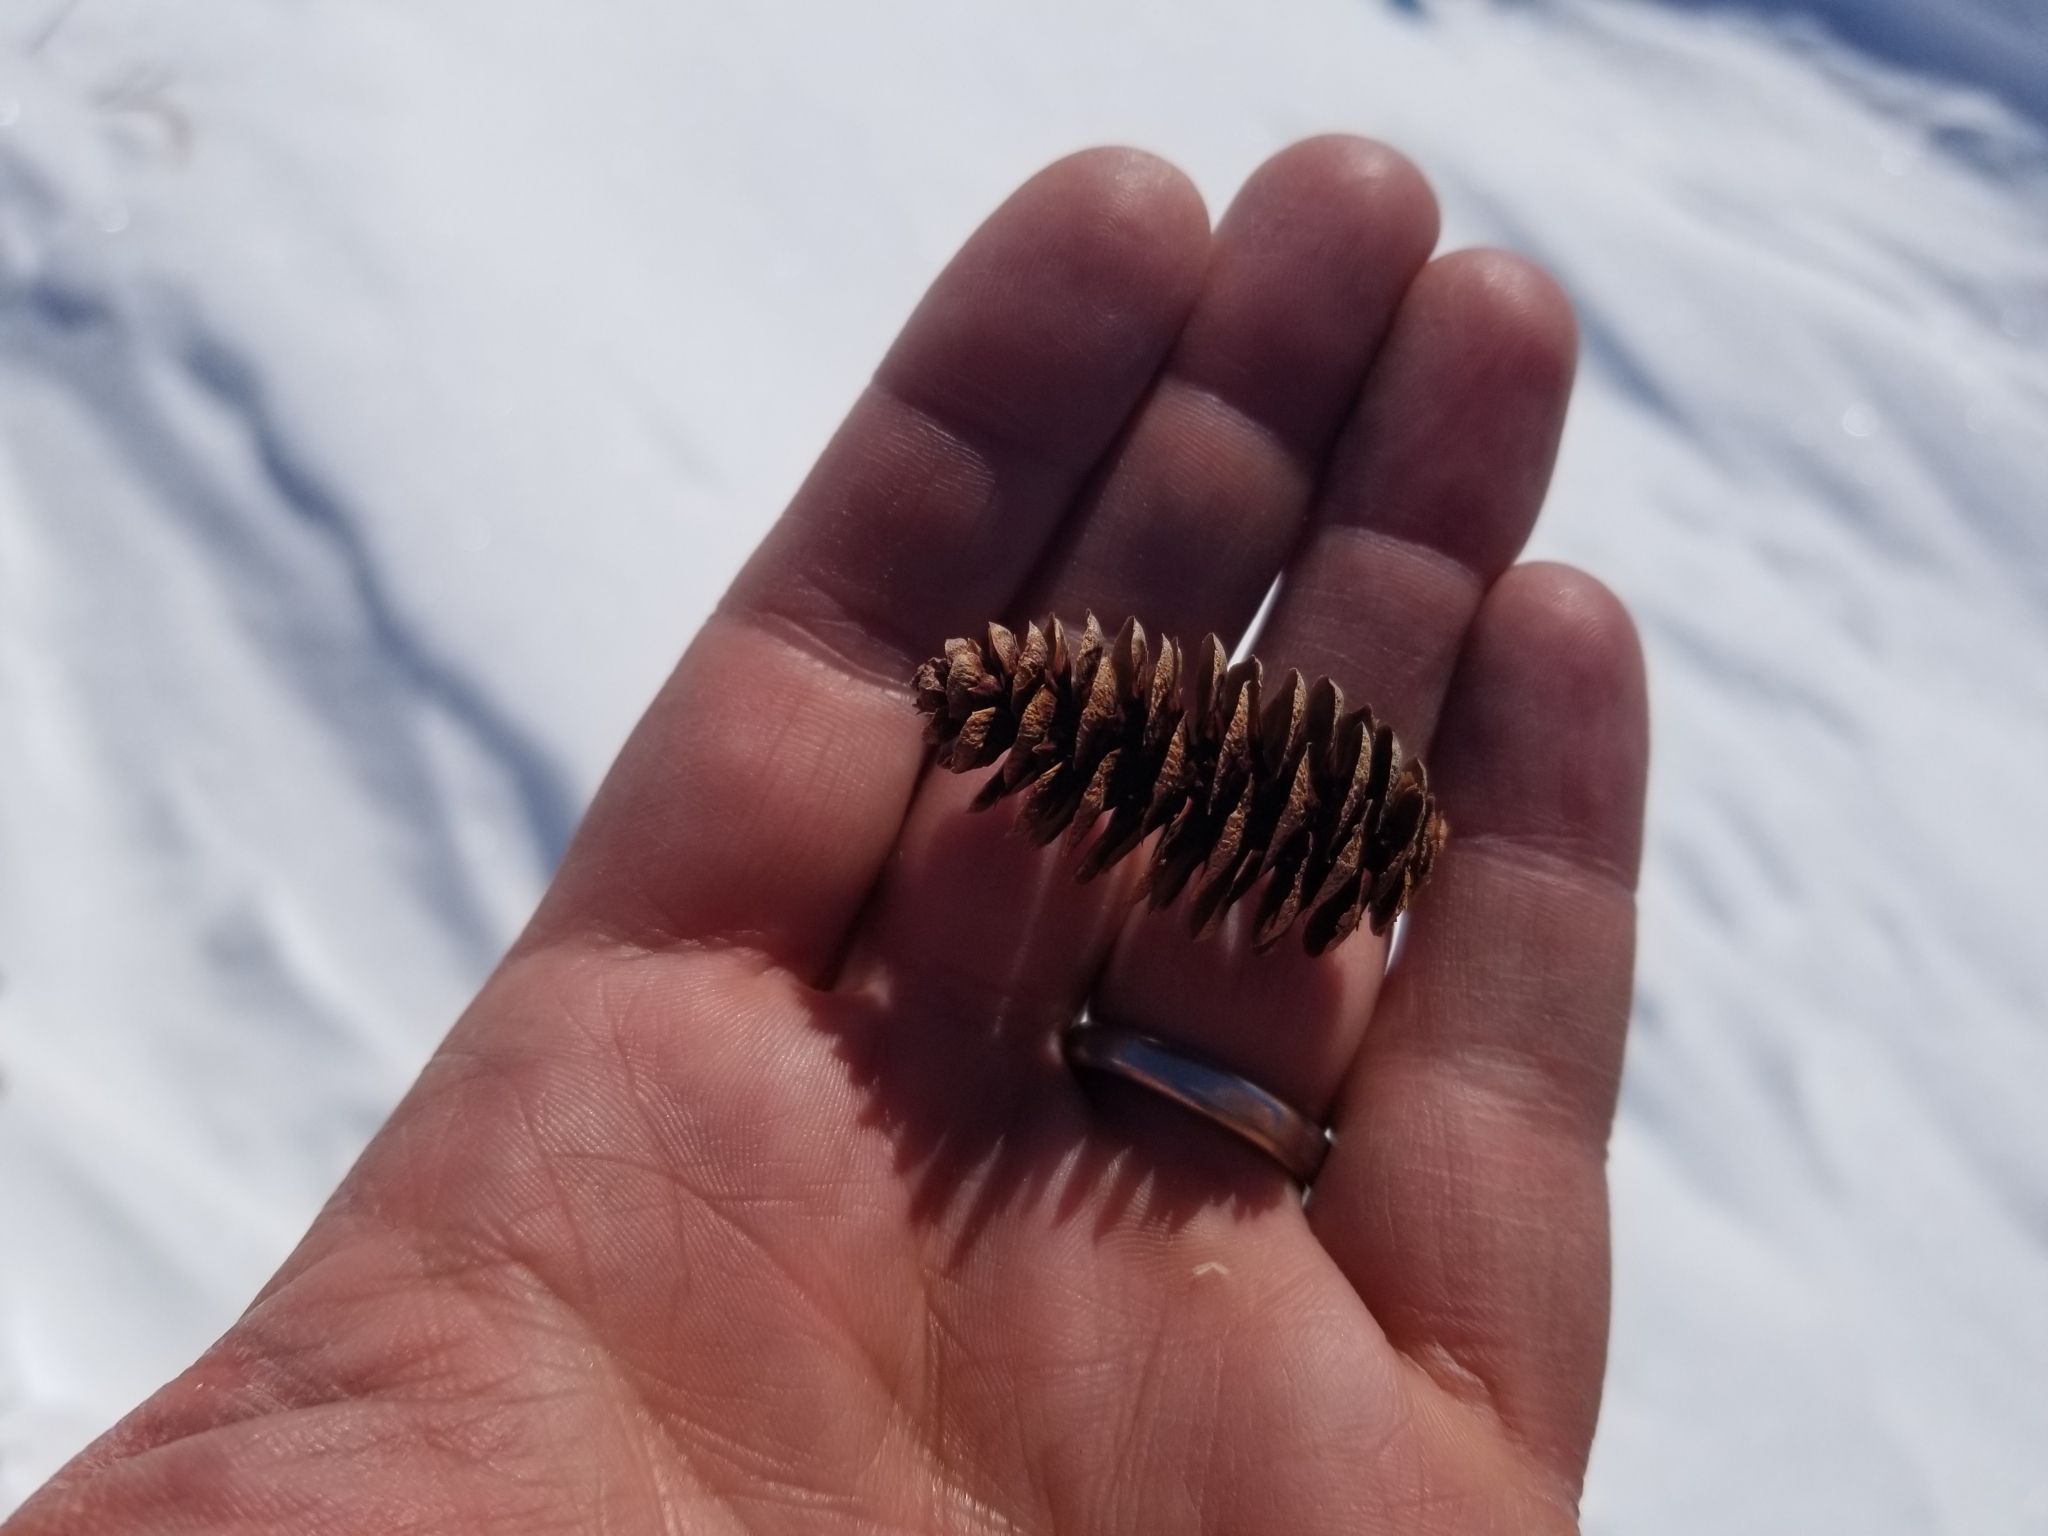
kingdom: Plantae
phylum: Tracheophyta
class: Pinopsida
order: Pinales
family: Pinaceae
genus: Tsuga
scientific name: Tsuga mertensiana
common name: Mountain hemlock
